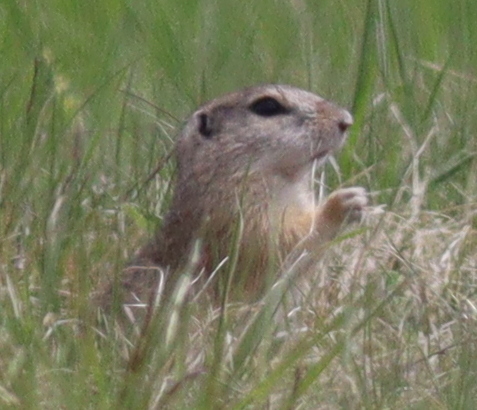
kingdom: Animalia
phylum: Chordata
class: Mammalia
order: Rodentia
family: Sciuridae
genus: Spermophilus
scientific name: Spermophilus citellus
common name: European ground squirrel
